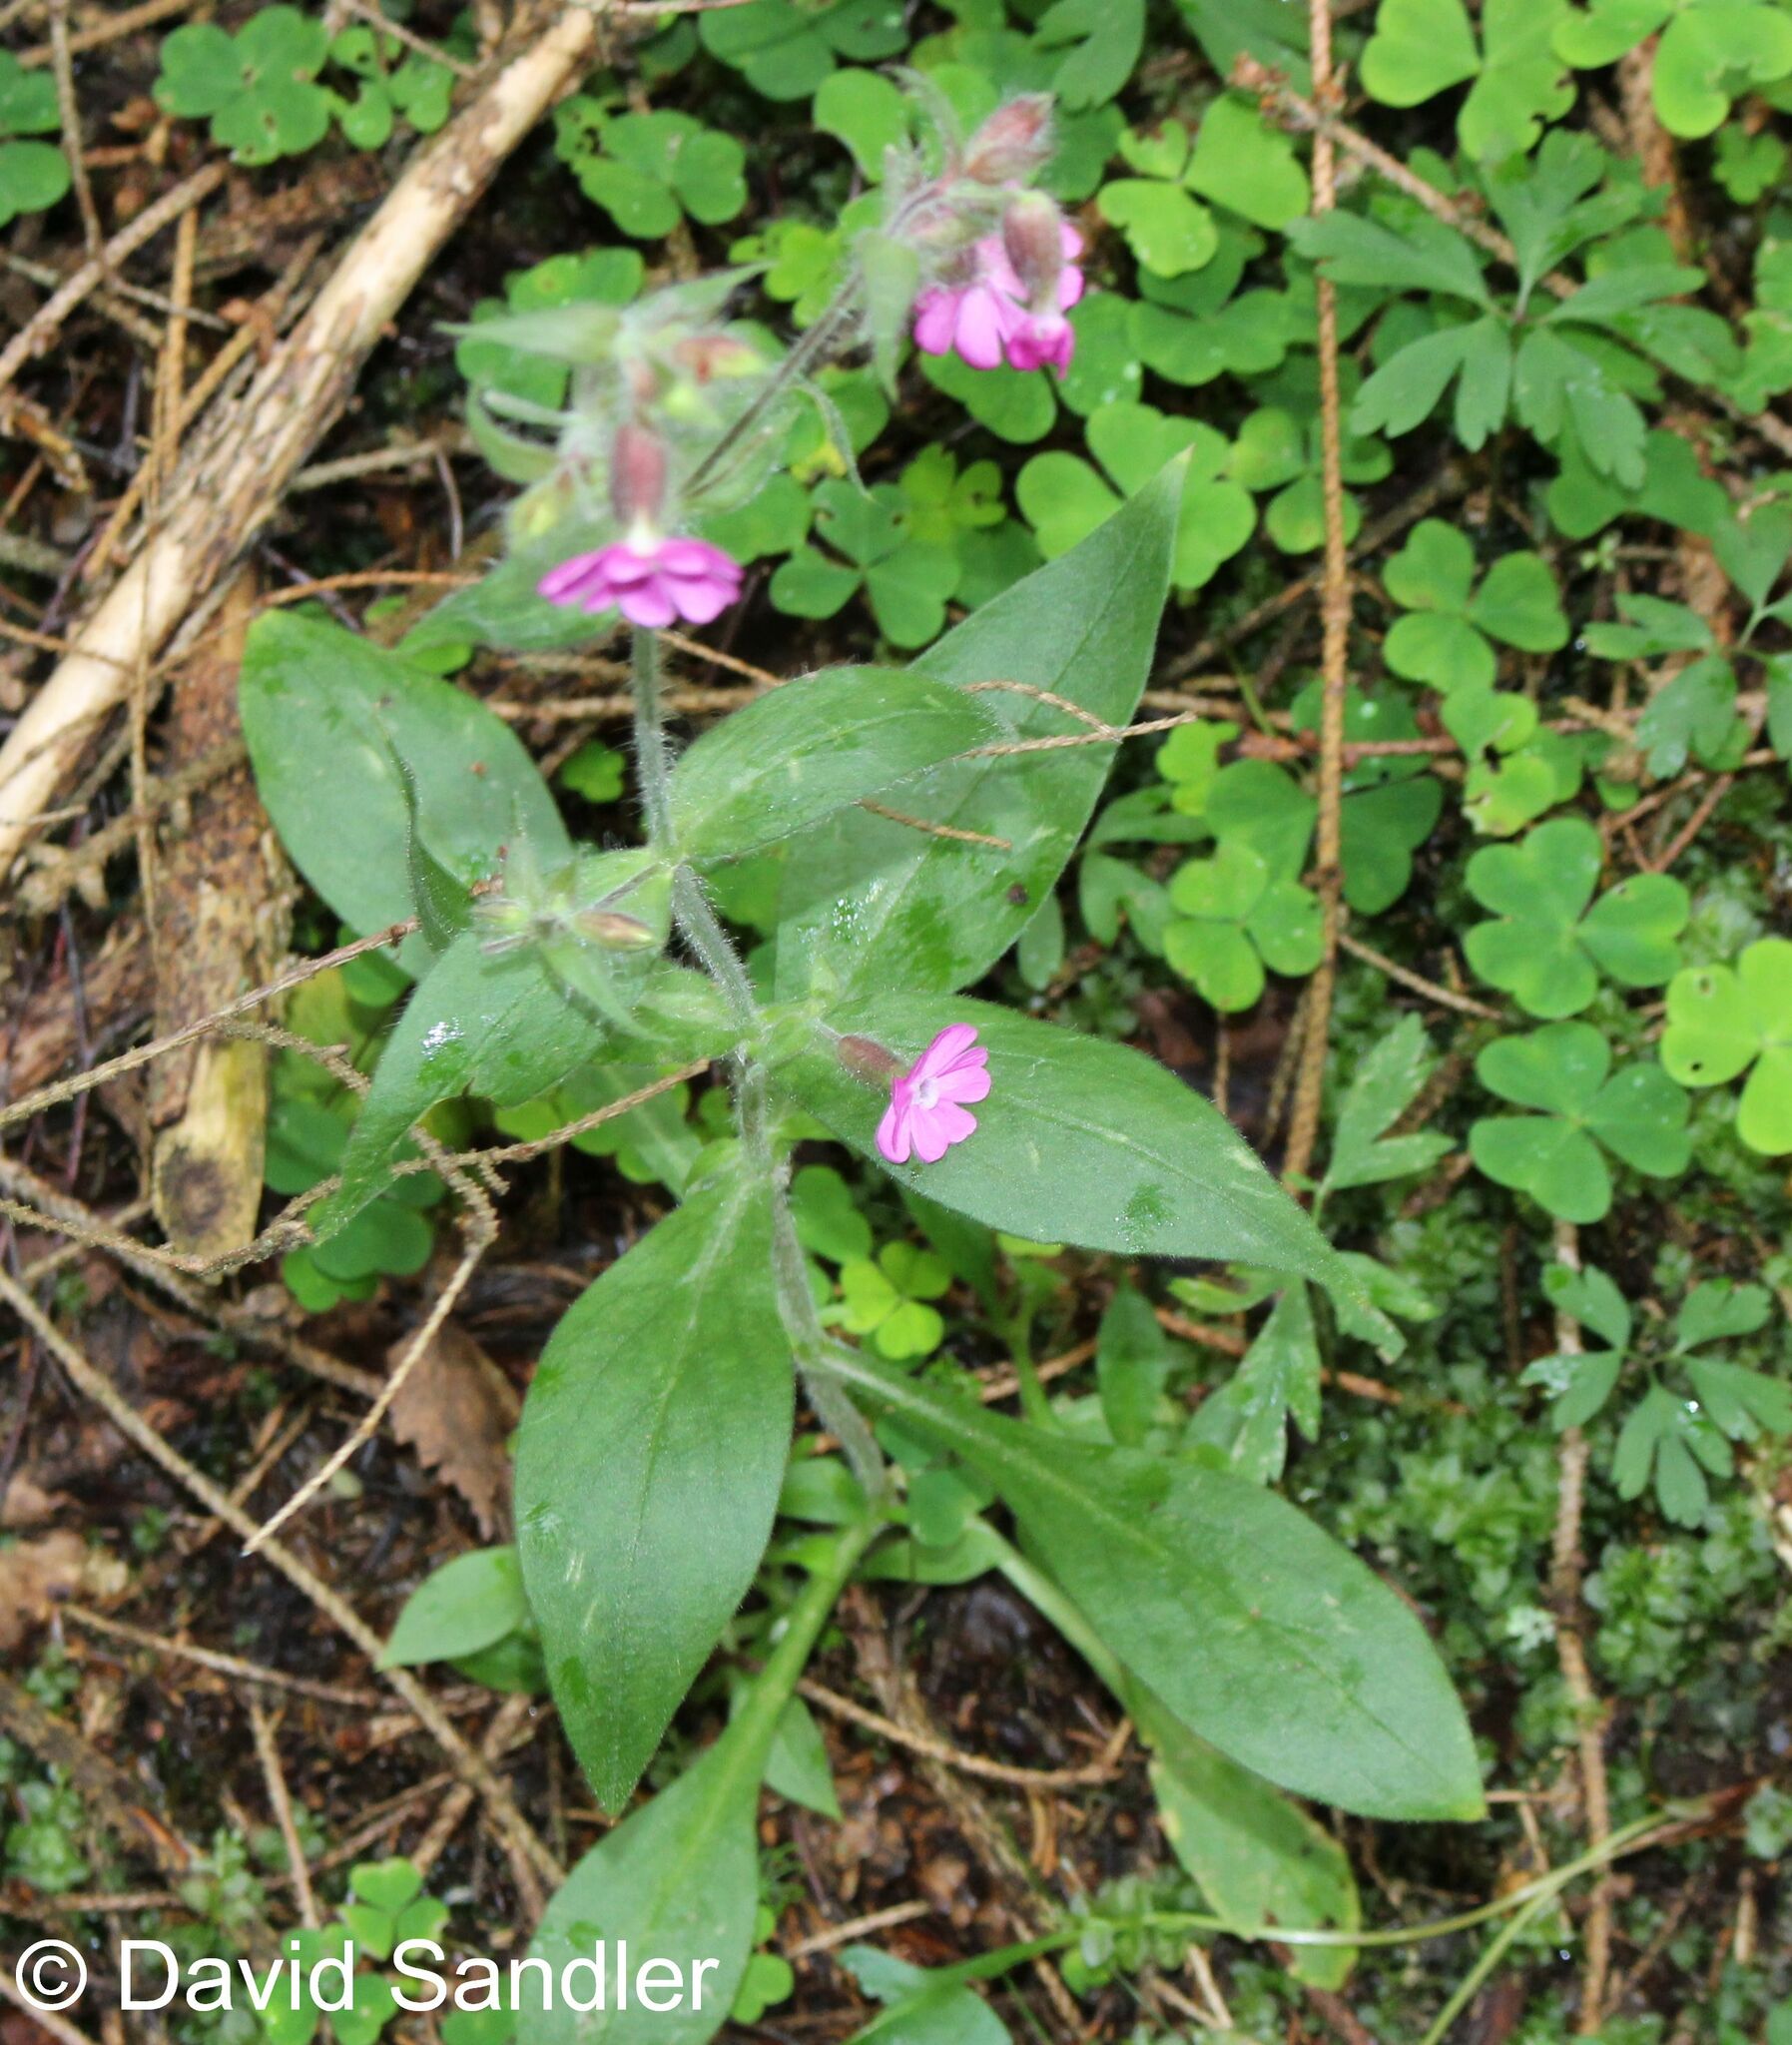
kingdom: Plantae
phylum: Tracheophyta
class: Magnoliopsida
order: Caryophyllales
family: Caryophyllaceae
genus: Silene
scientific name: Silene dioica
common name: Red campion
